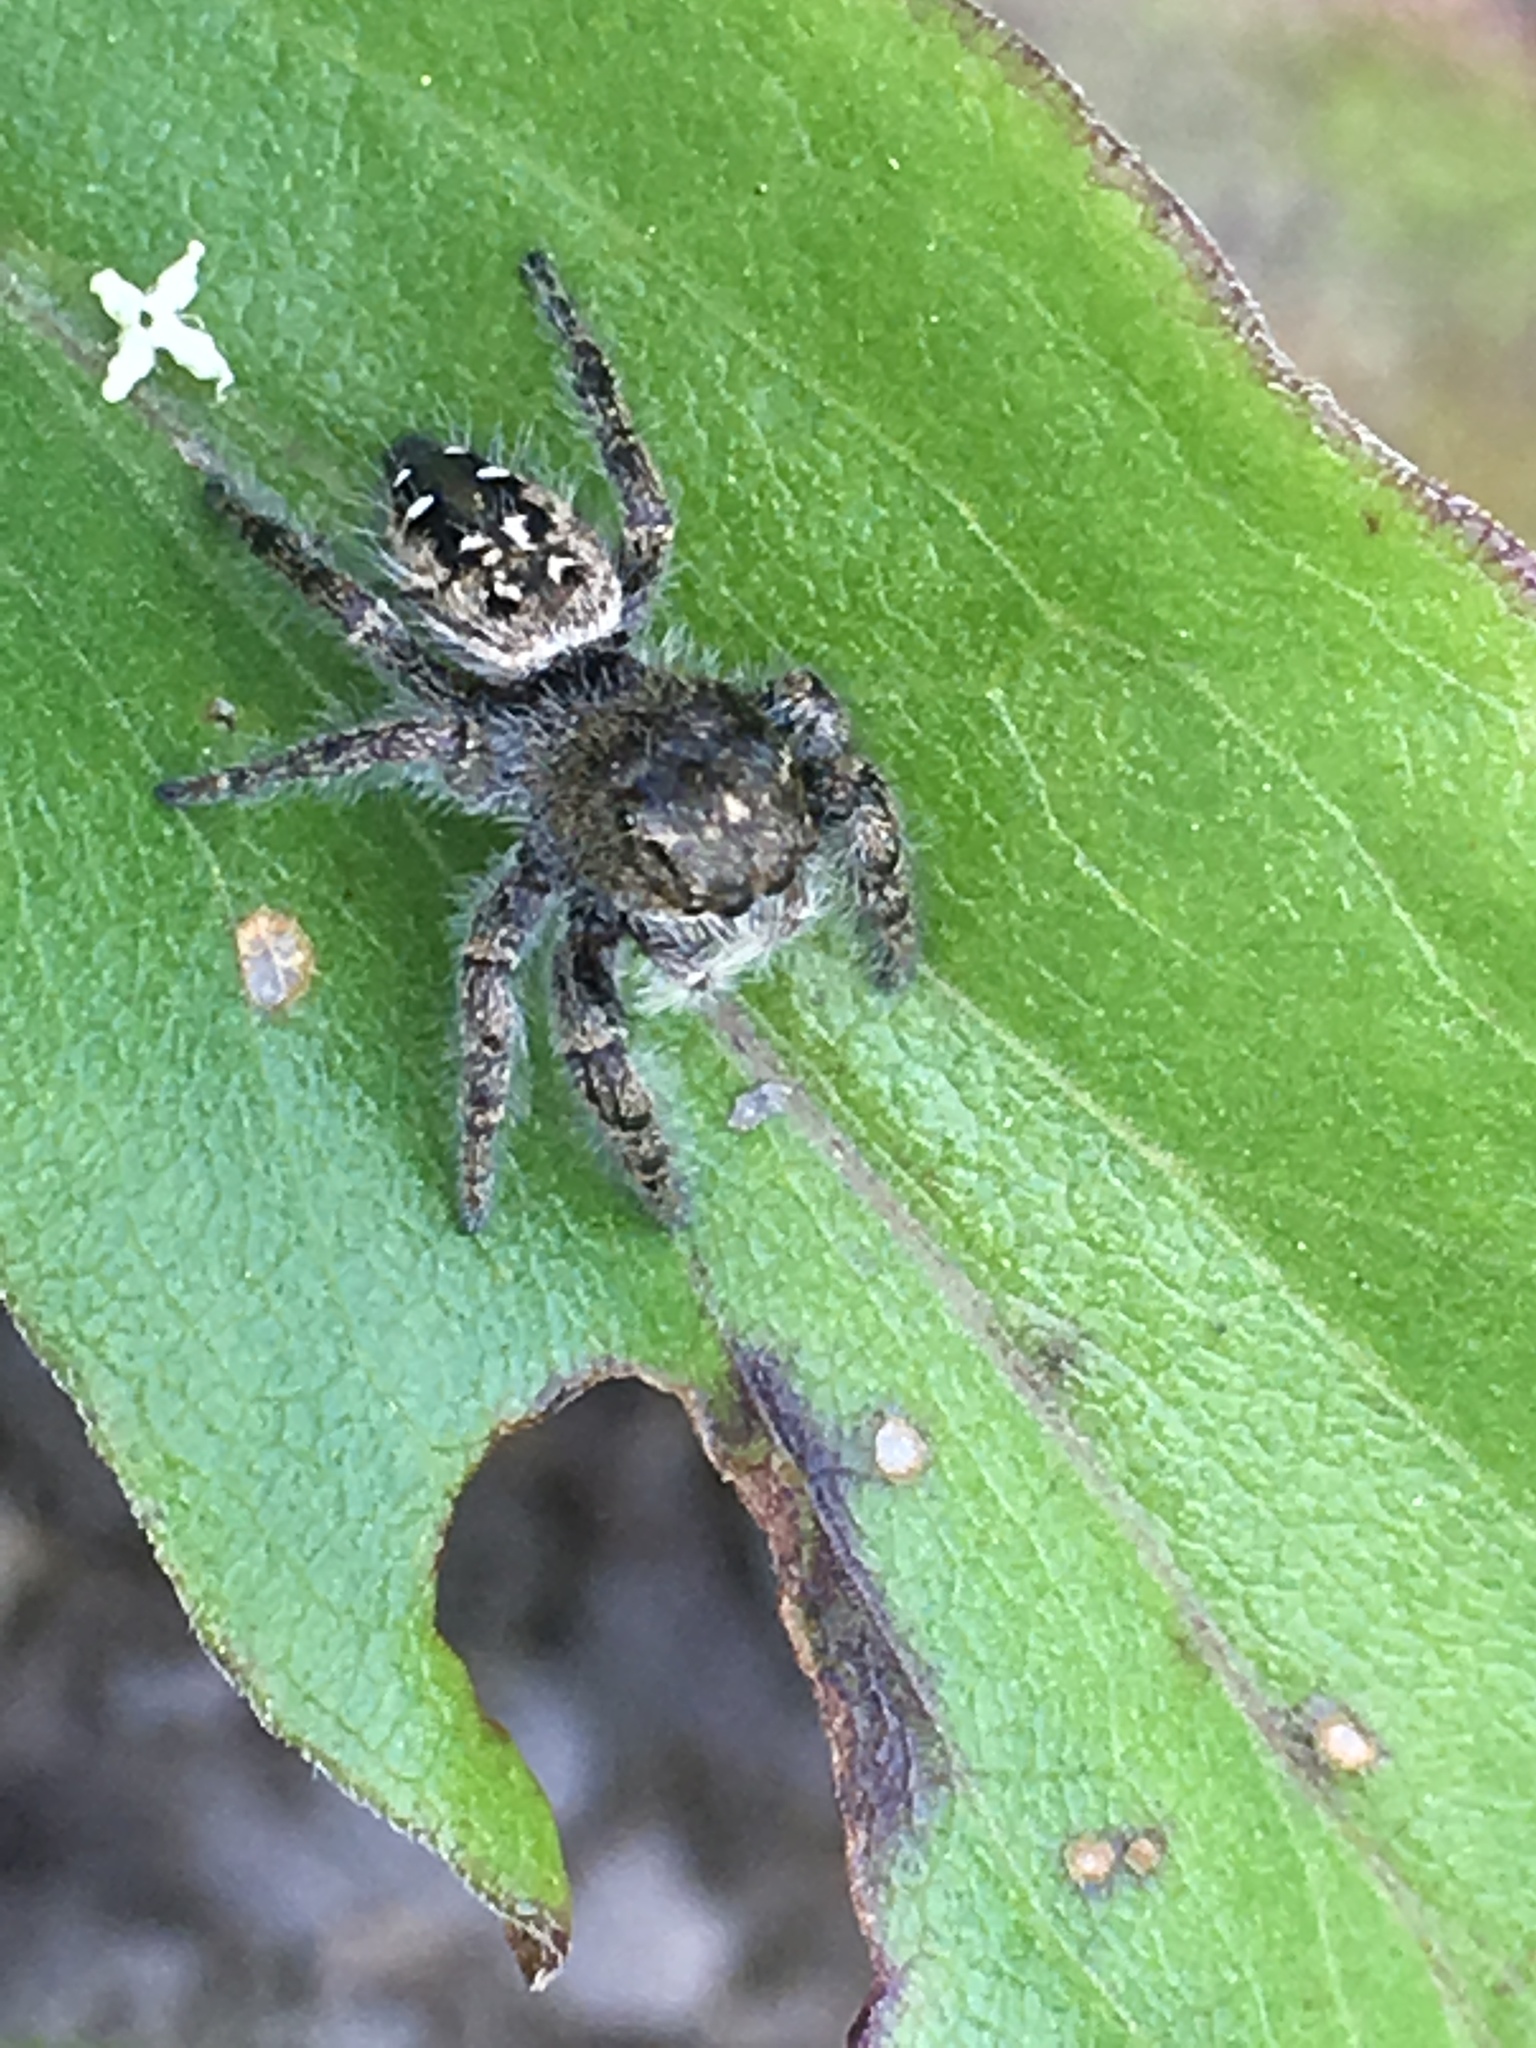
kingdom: Animalia
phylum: Arthropoda
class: Arachnida
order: Araneae
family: Salticidae
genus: Phidippus
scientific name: Phidippus purpuratus
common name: Marbled purple jumping spider
